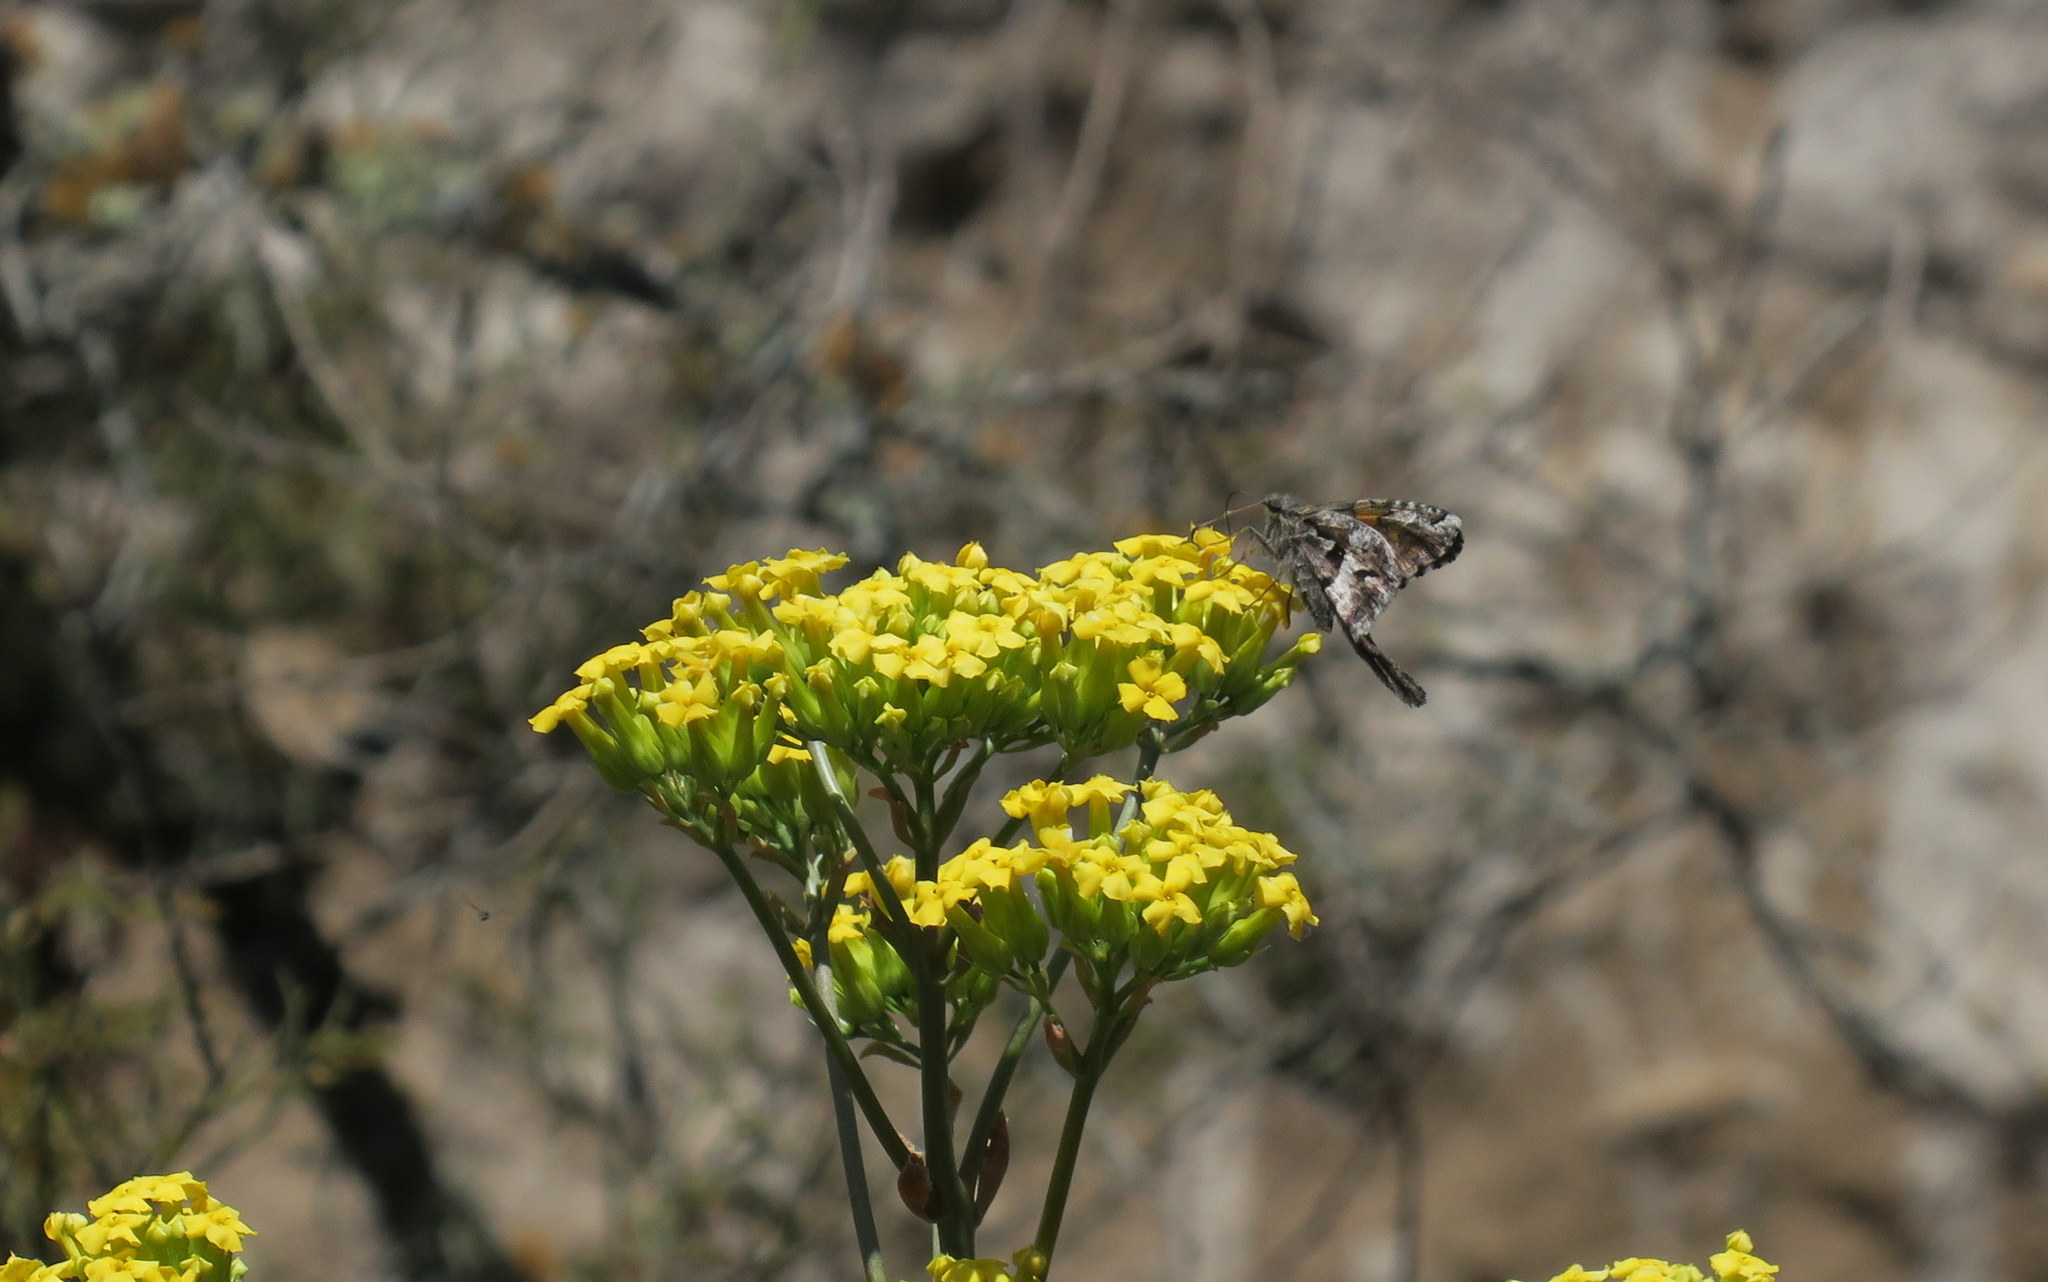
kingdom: Animalia
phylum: Arthropoda
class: Insecta
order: Lepidoptera
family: Hesperiidae
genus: Chioides
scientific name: Chioides iverna
